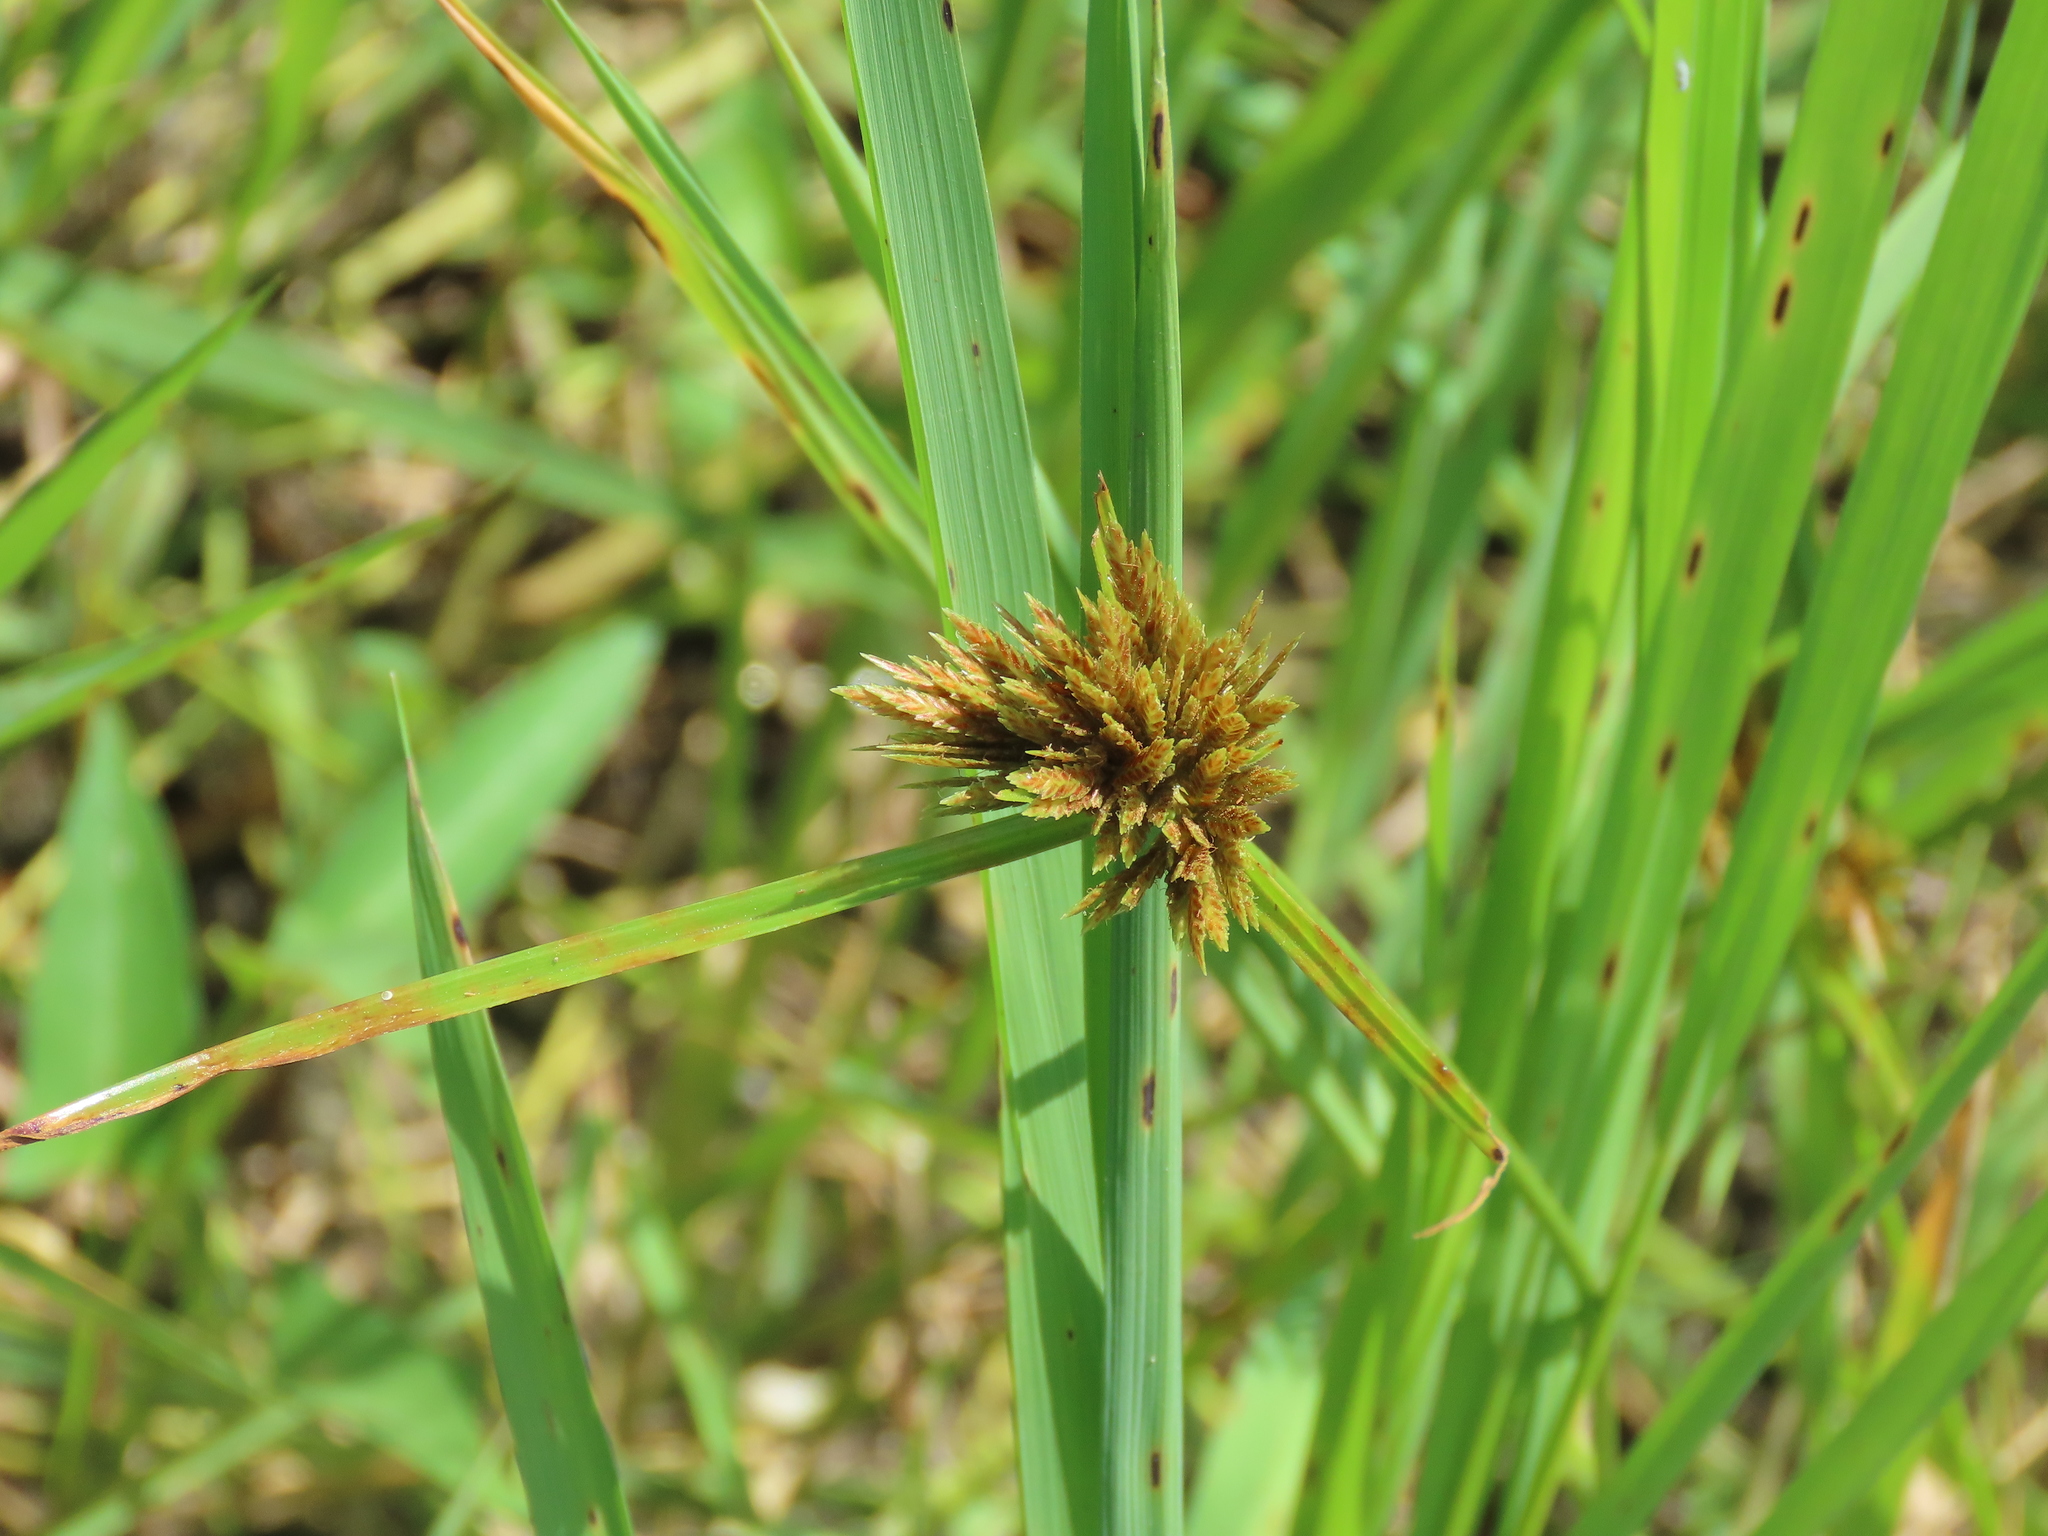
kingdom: Plantae
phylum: Tracheophyta
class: Liliopsida
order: Poales
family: Cyperaceae
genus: Cyperus
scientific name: Cyperus polystachyos
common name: Bunchy flat sedge
